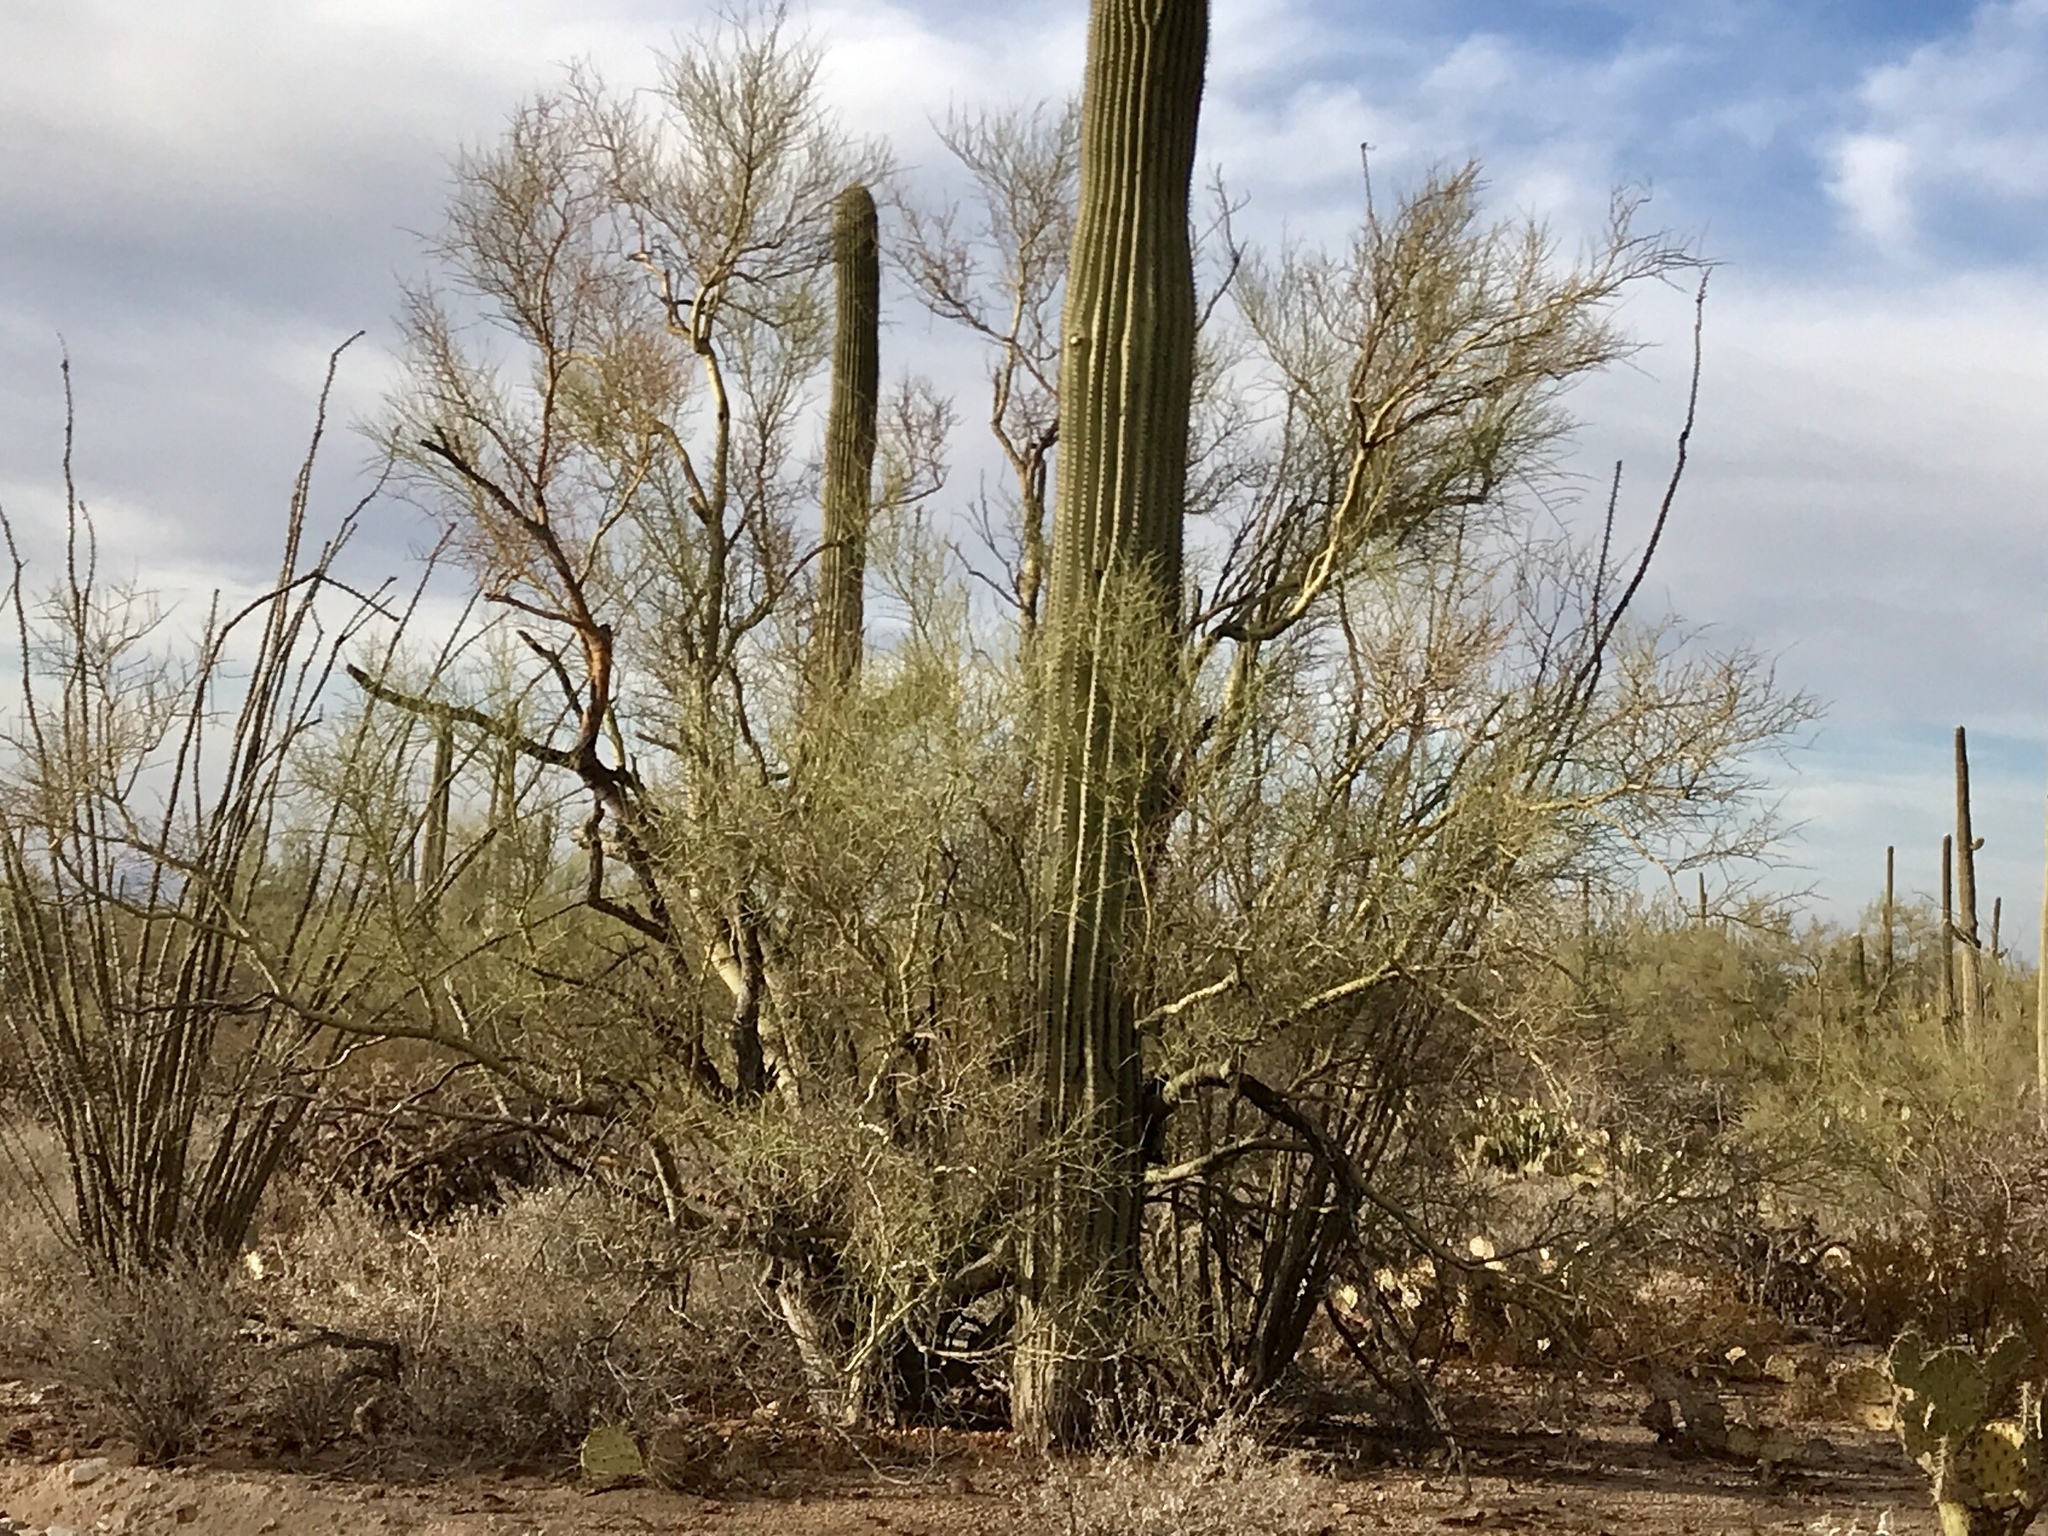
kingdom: Plantae
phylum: Tracheophyta
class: Magnoliopsida
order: Fabales
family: Fabaceae
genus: Parkinsonia
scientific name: Parkinsonia microphylla
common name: Yellow paloverde
